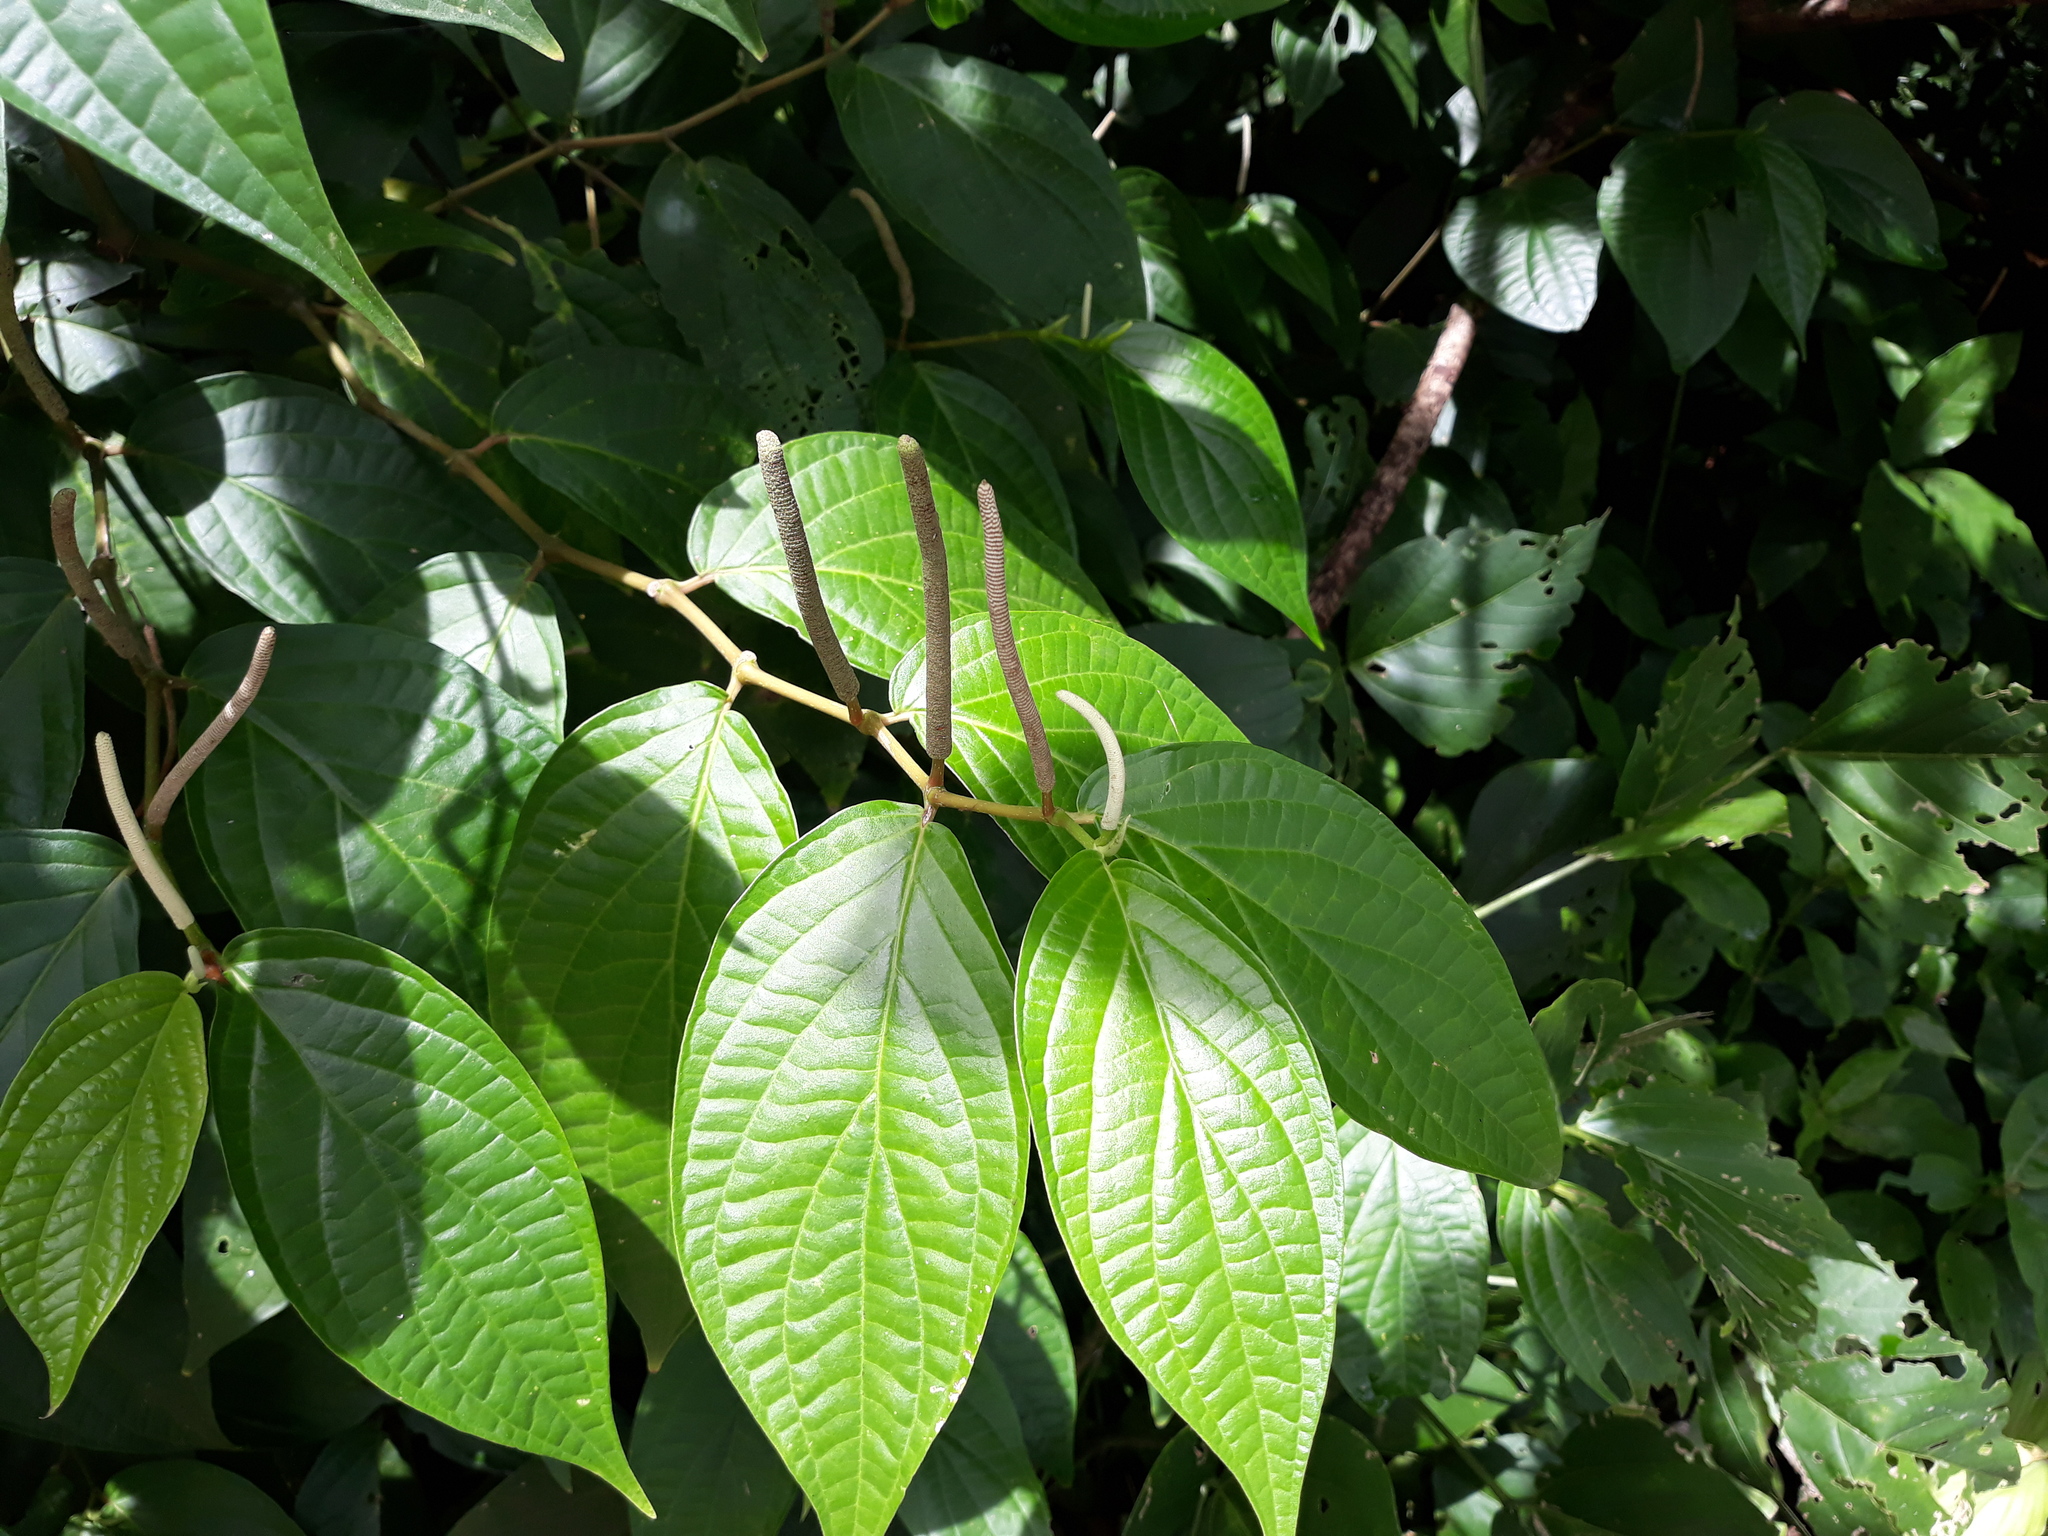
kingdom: Plantae
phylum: Tracheophyta
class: Magnoliopsida
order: Piperales
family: Piperaceae
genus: Piper
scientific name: Piper hispidum
